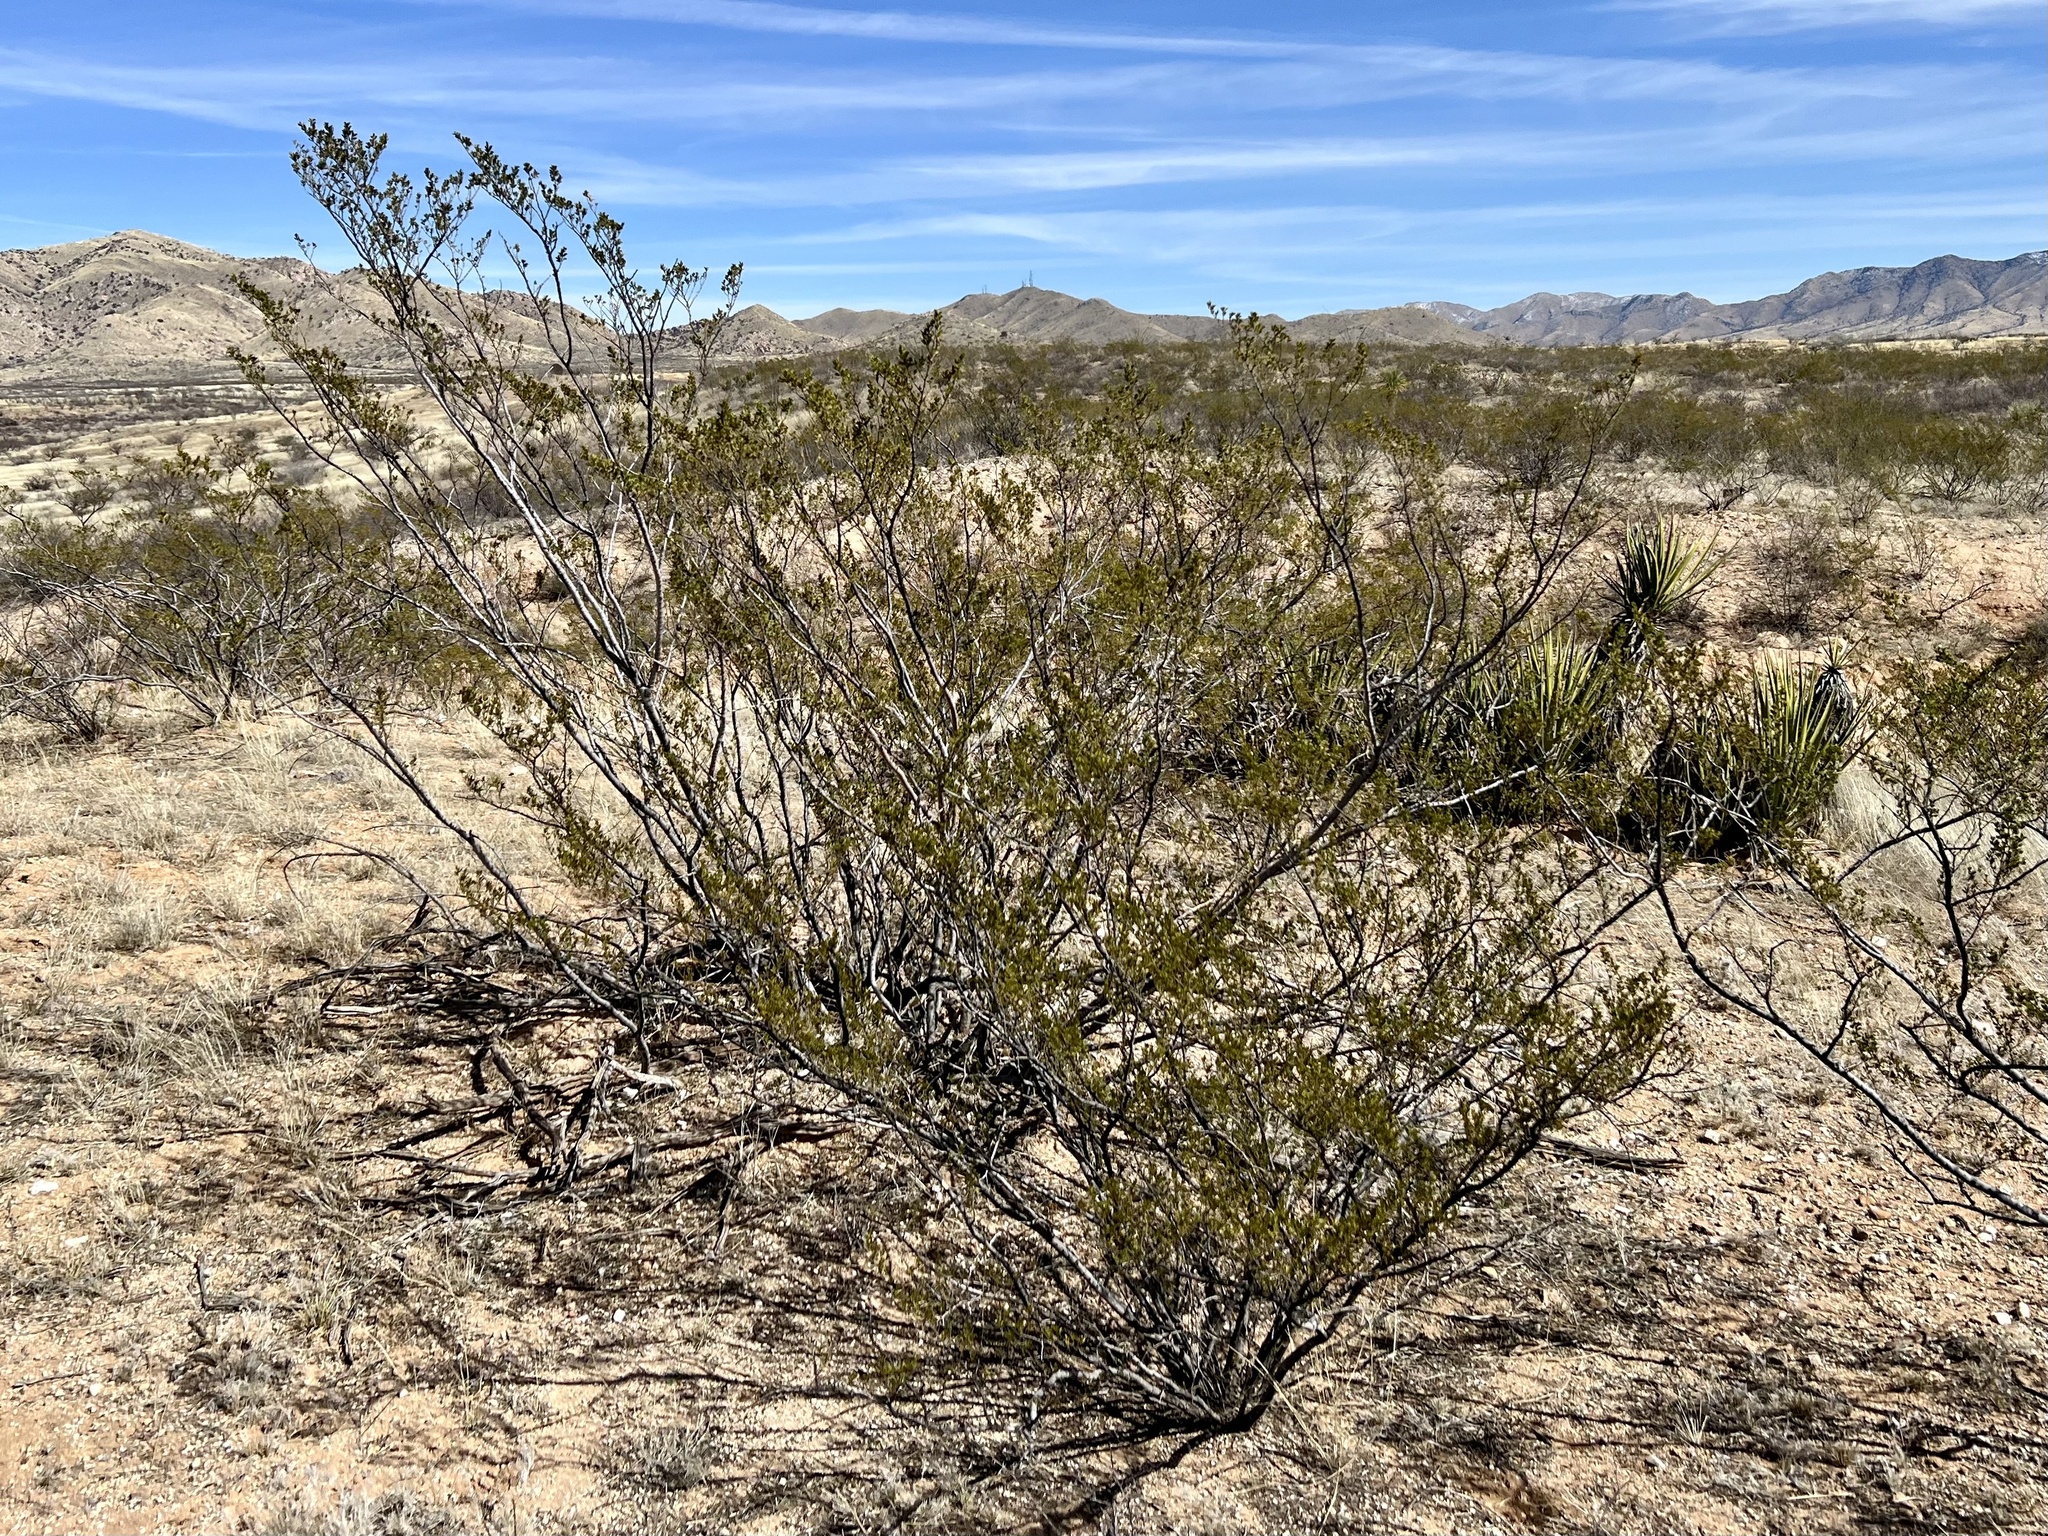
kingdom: Plantae
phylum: Tracheophyta
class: Magnoliopsida
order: Zygophyllales
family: Zygophyllaceae
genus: Larrea
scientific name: Larrea tridentata
